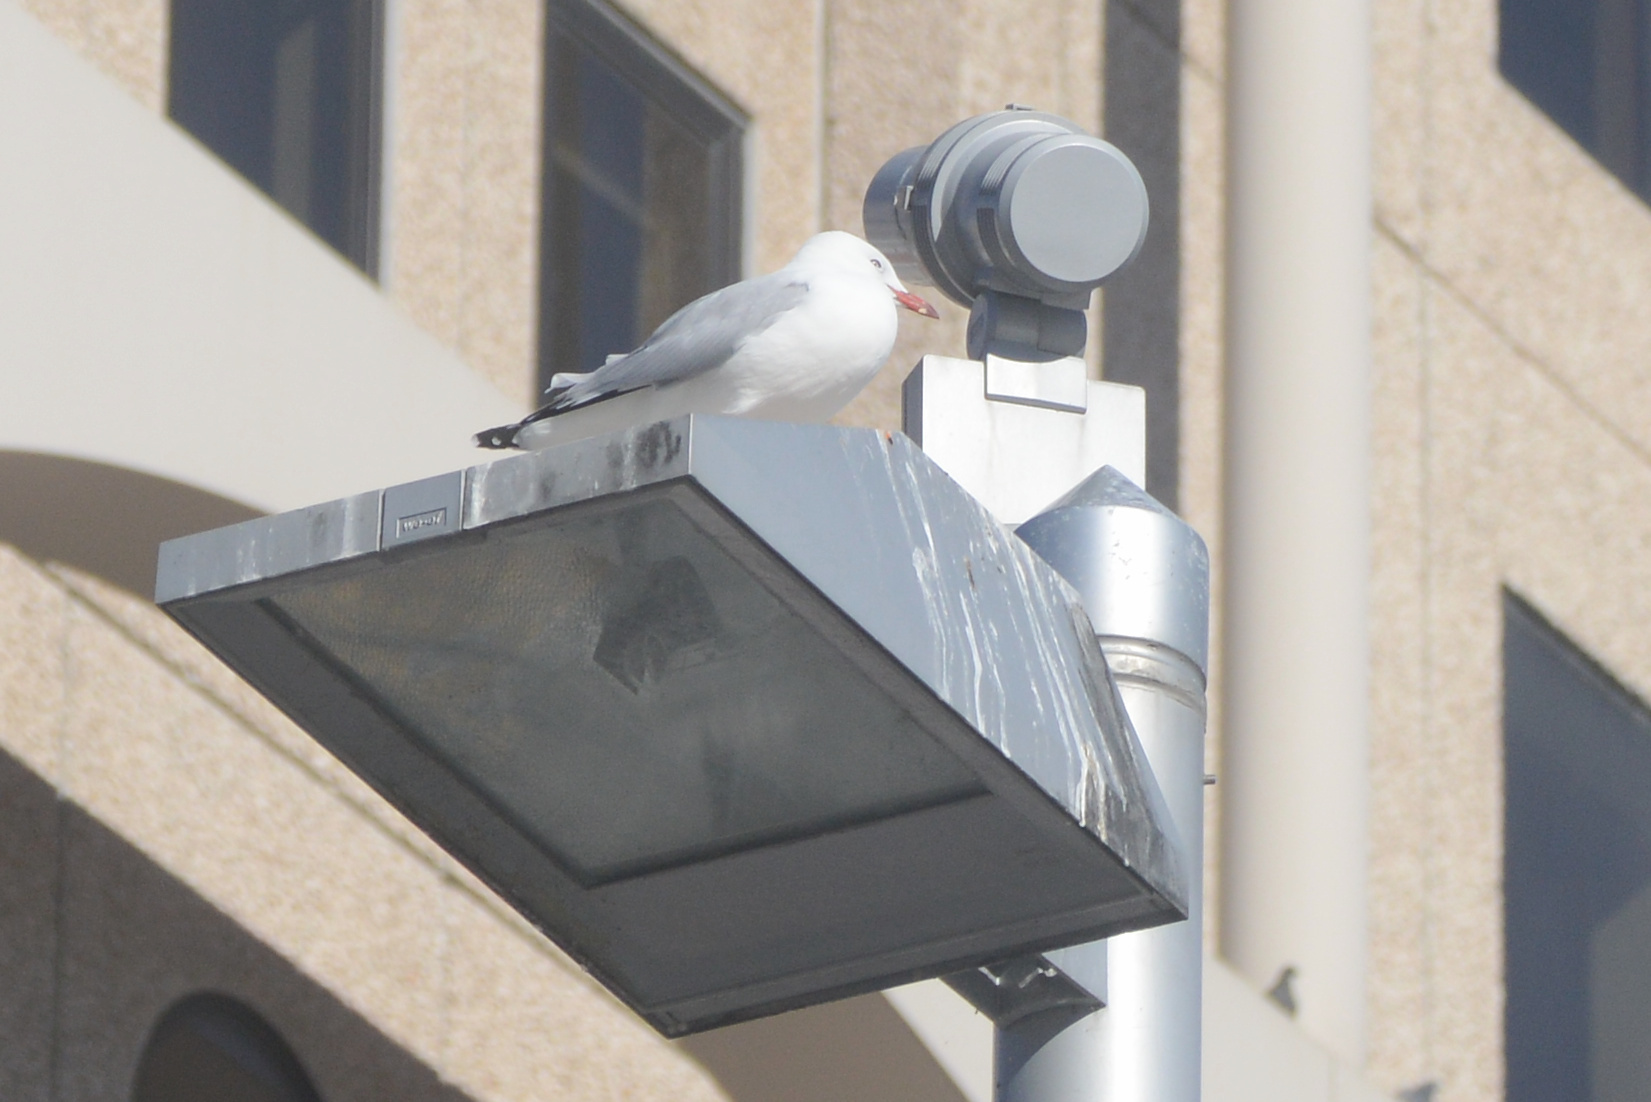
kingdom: Animalia
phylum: Chordata
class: Aves
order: Charadriiformes
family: Laridae
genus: Chroicocephalus
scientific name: Chroicocephalus novaehollandiae
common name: Silver gull
